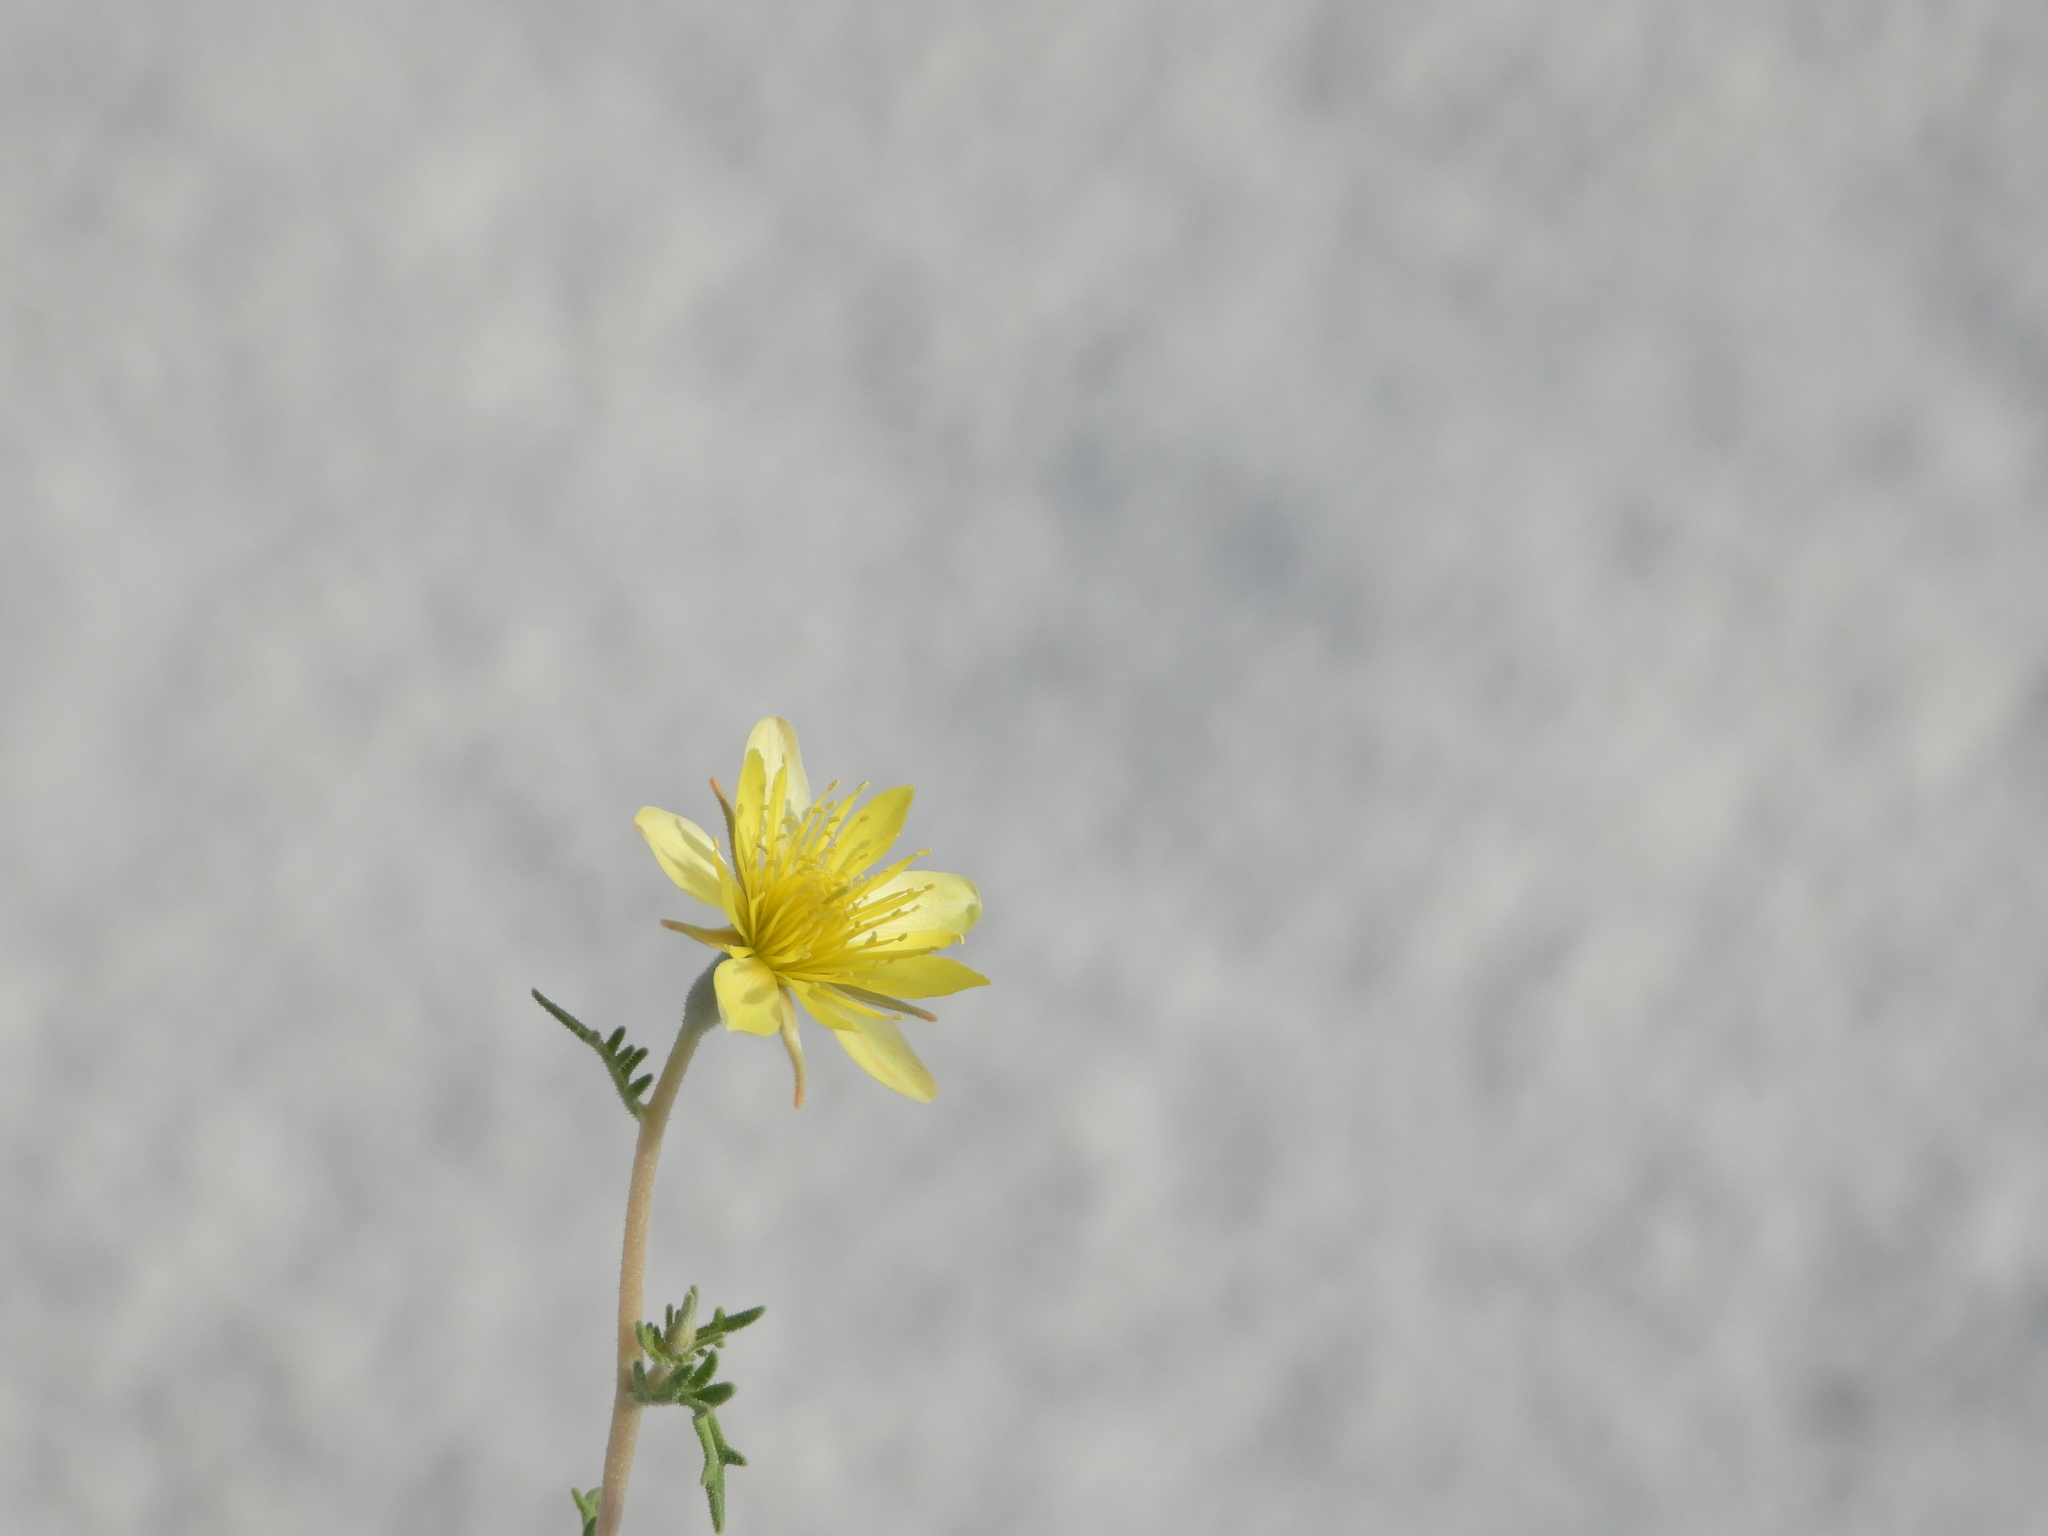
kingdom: Plantae
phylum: Tracheophyta
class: Magnoliopsida
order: Cornales
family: Loasaceae
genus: Mentzelia
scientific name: Mentzelia procera
